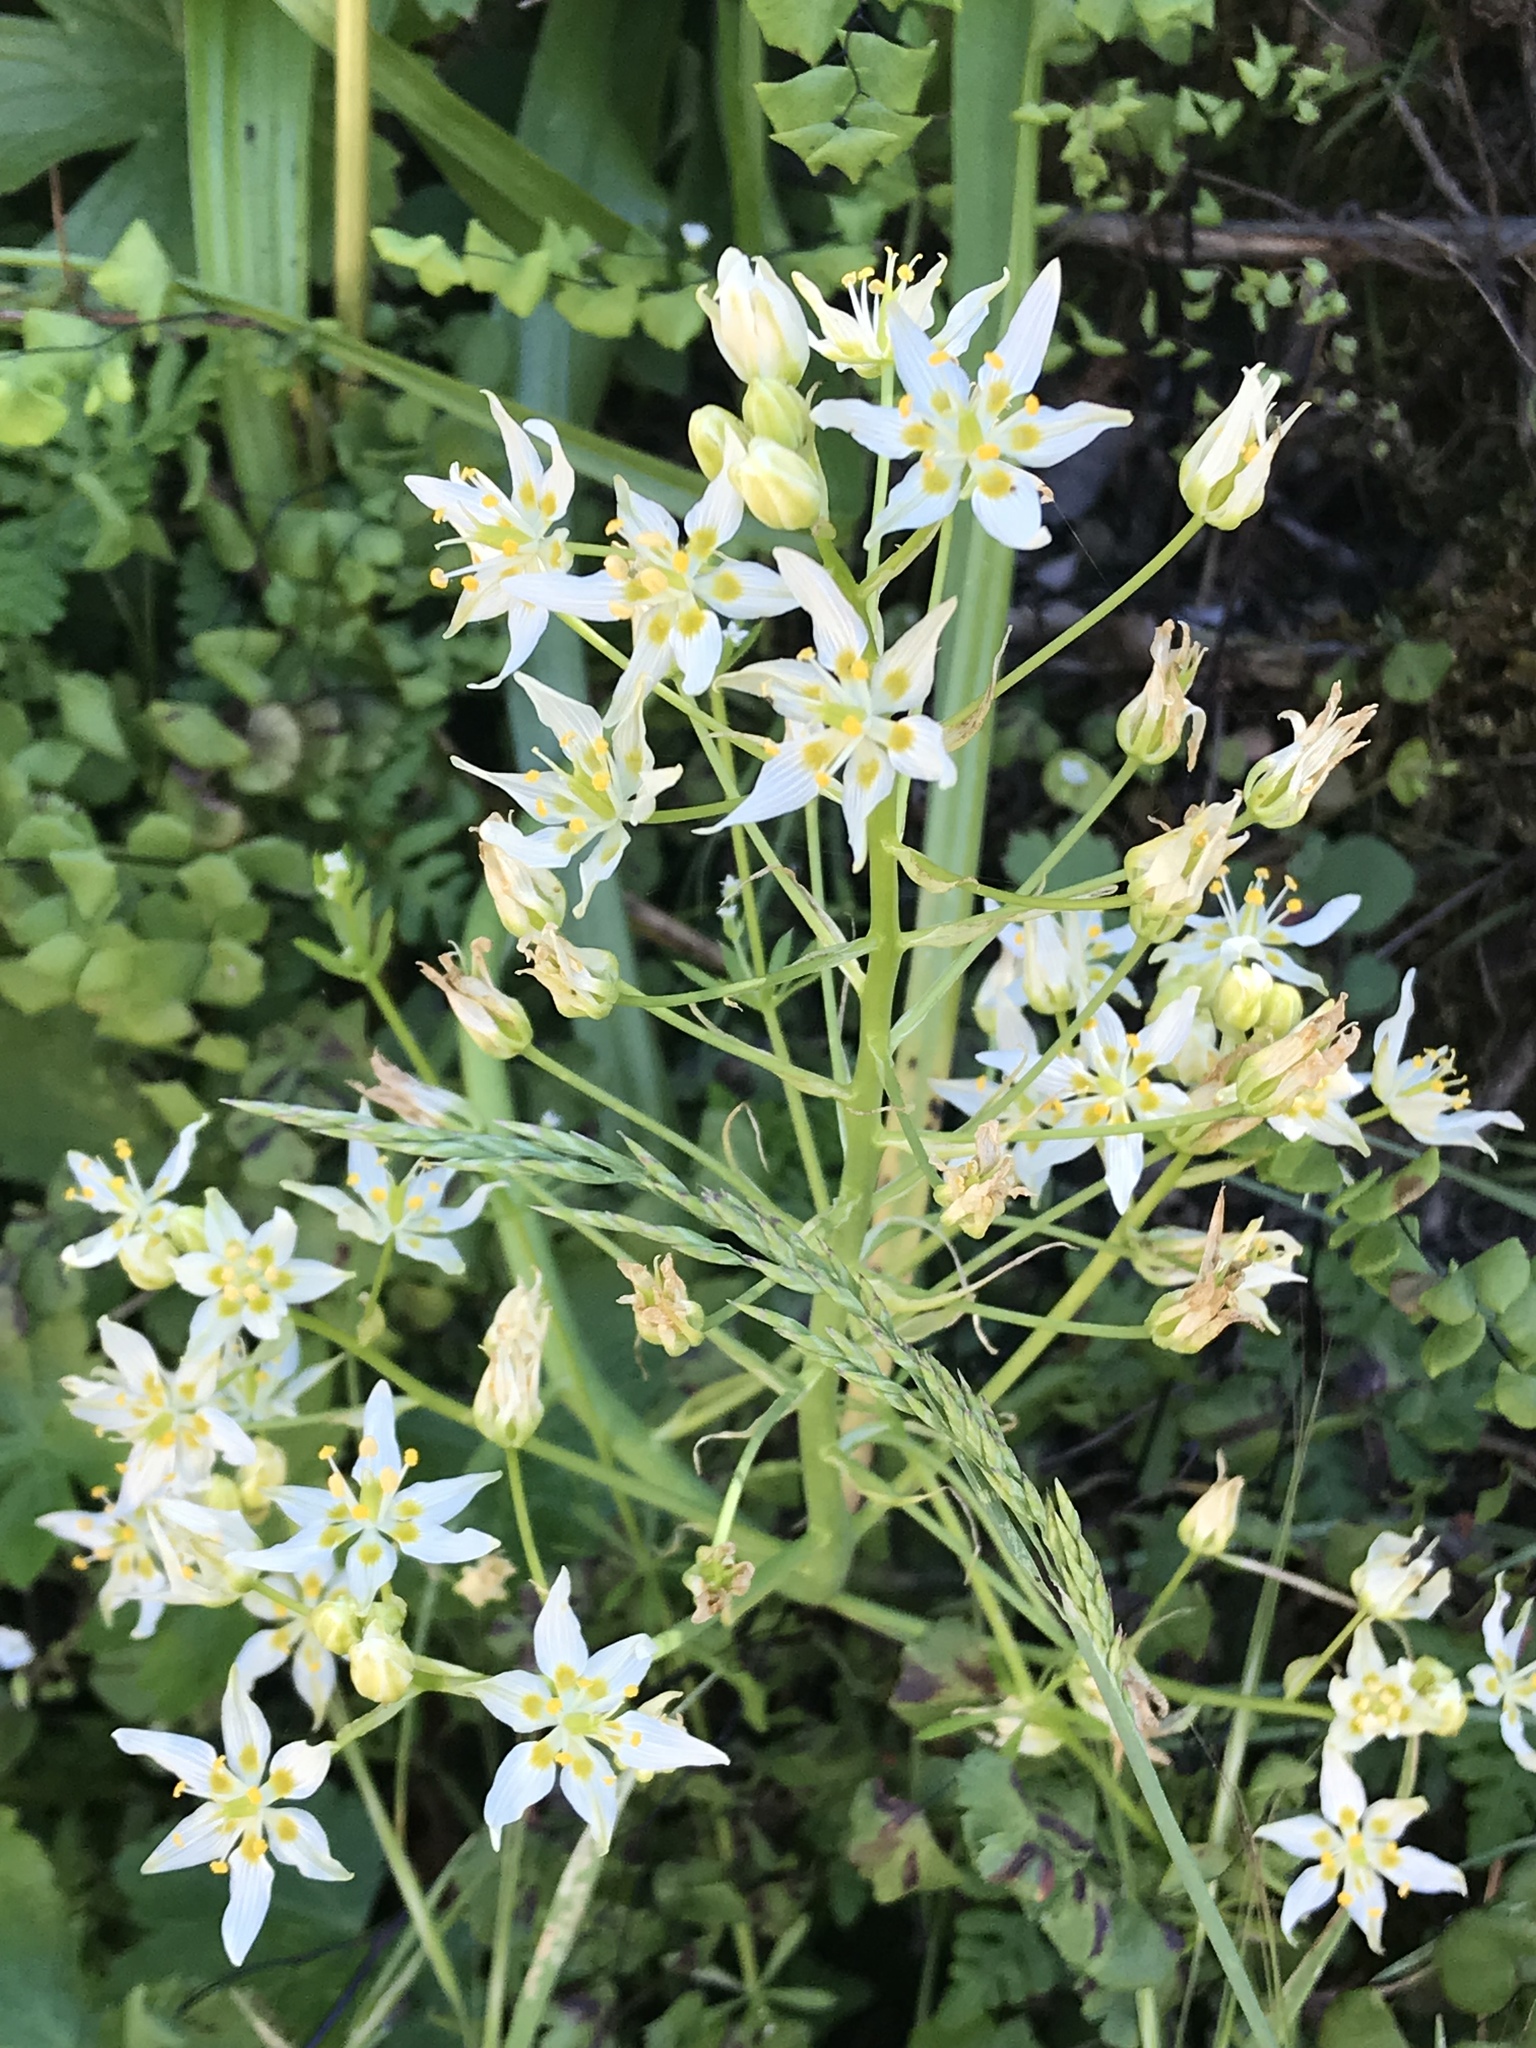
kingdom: Plantae
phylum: Tracheophyta
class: Liliopsida
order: Liliales
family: Melanthiaceae
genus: Toxicoscordion
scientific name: Toxicoscordion fremontii
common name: Fremont's death camas
